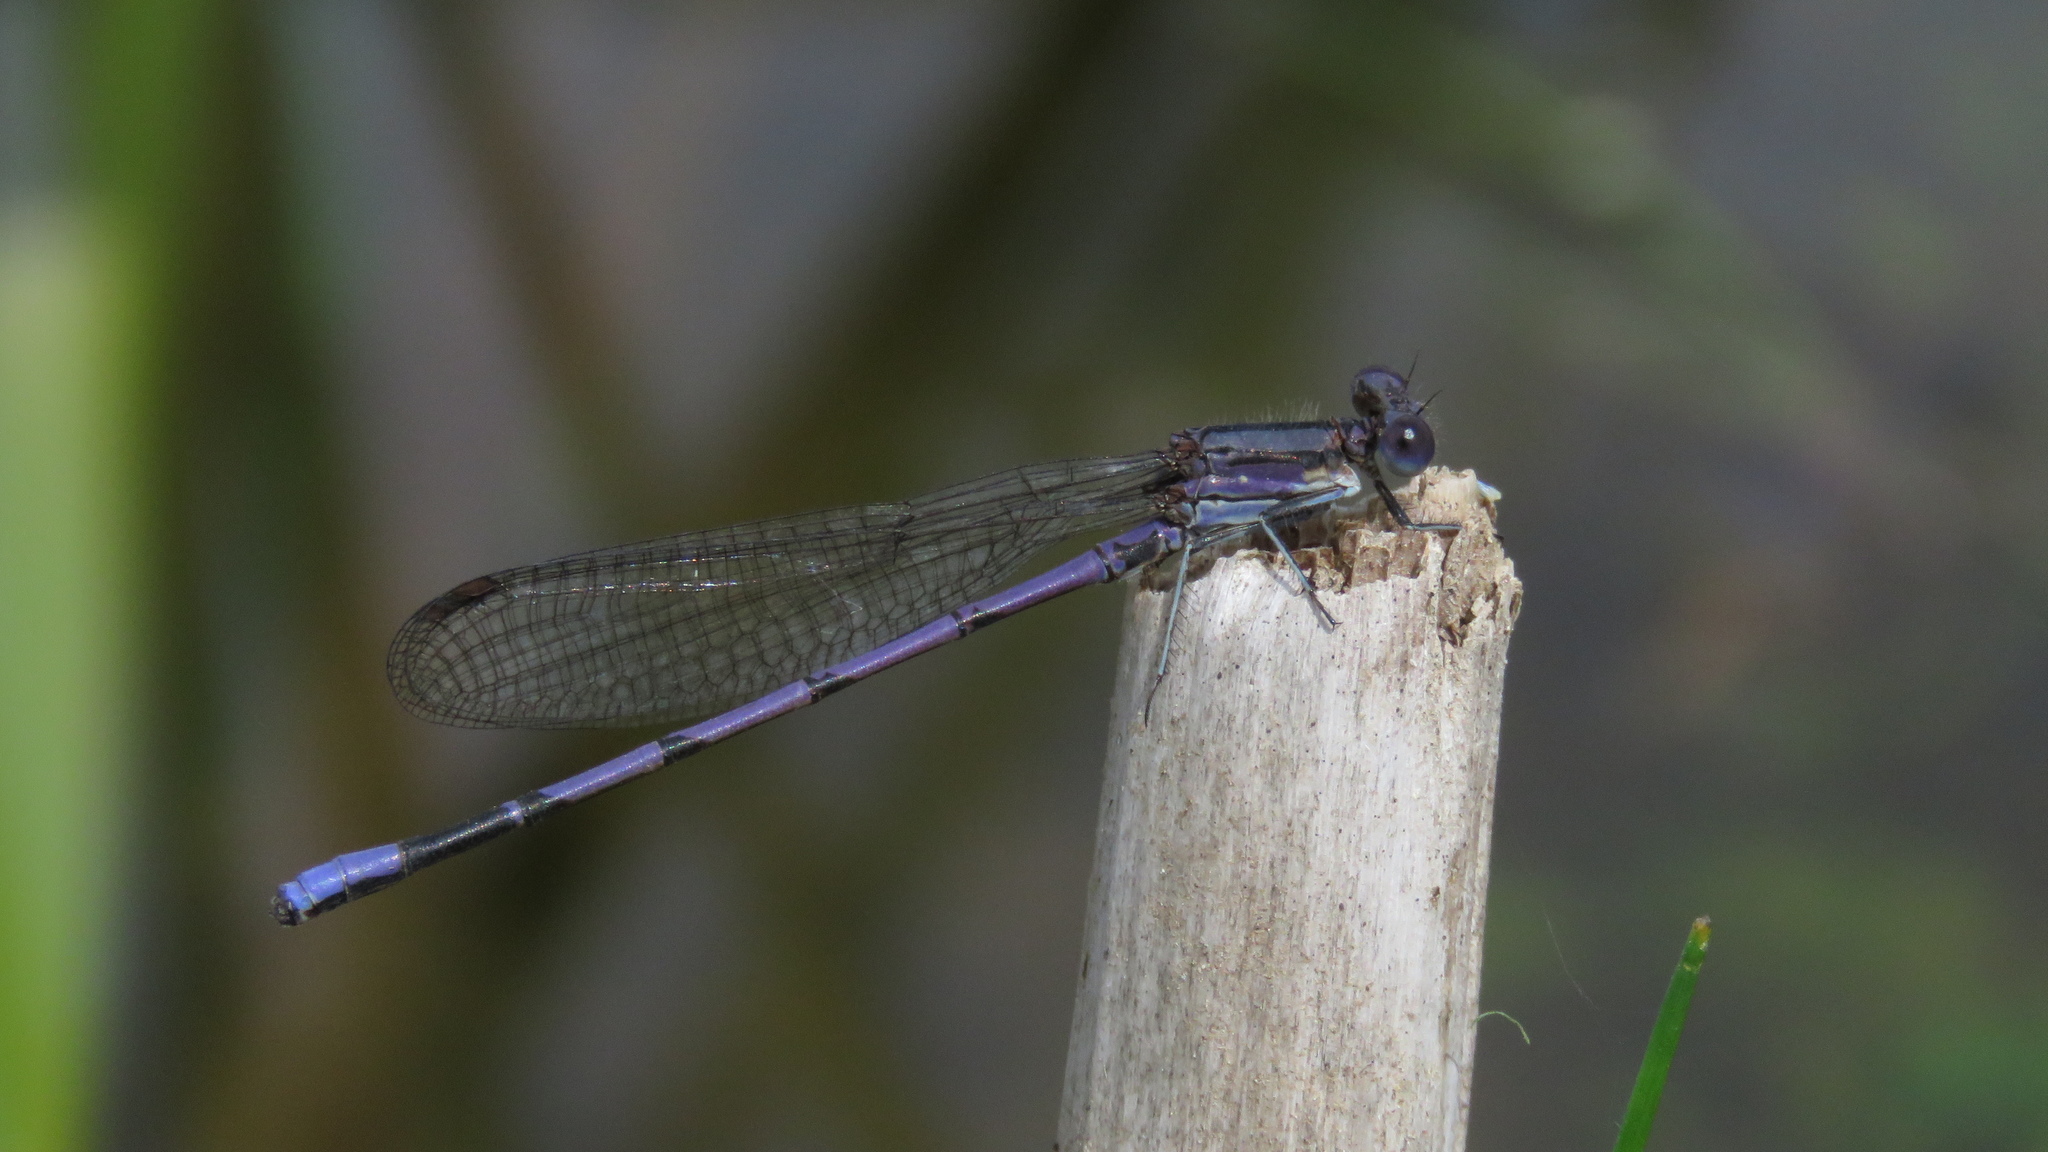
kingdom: Animalia
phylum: Arthropoda
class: Insecta
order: Odonata
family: Coenagrionidae
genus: Argia
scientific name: Argia fumipennis
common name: Variable dancer
